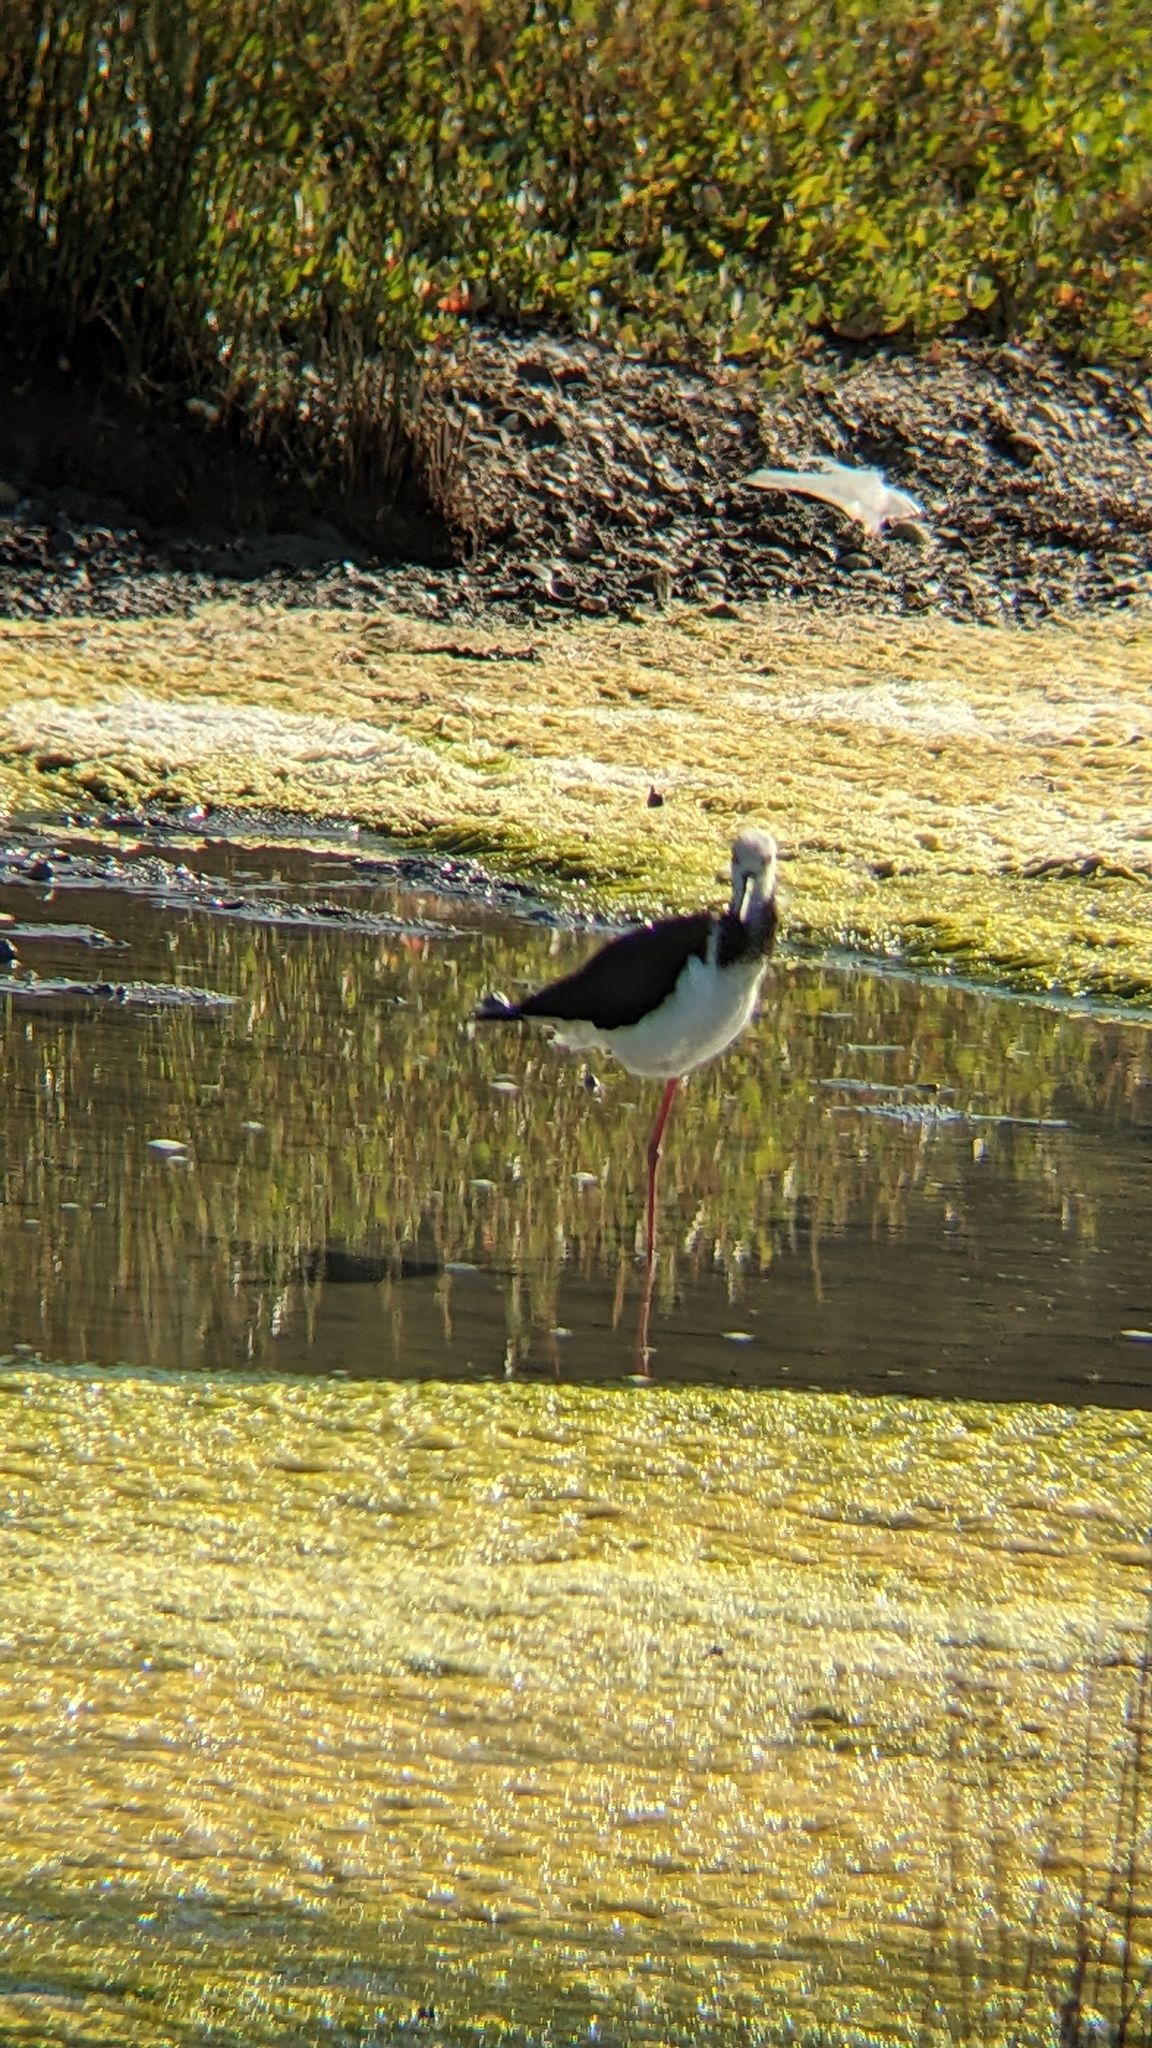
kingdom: Animalia
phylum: Chordata
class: Aves
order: Charadriiformes
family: Recurvirostridae
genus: Himantopus
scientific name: Himantopus
